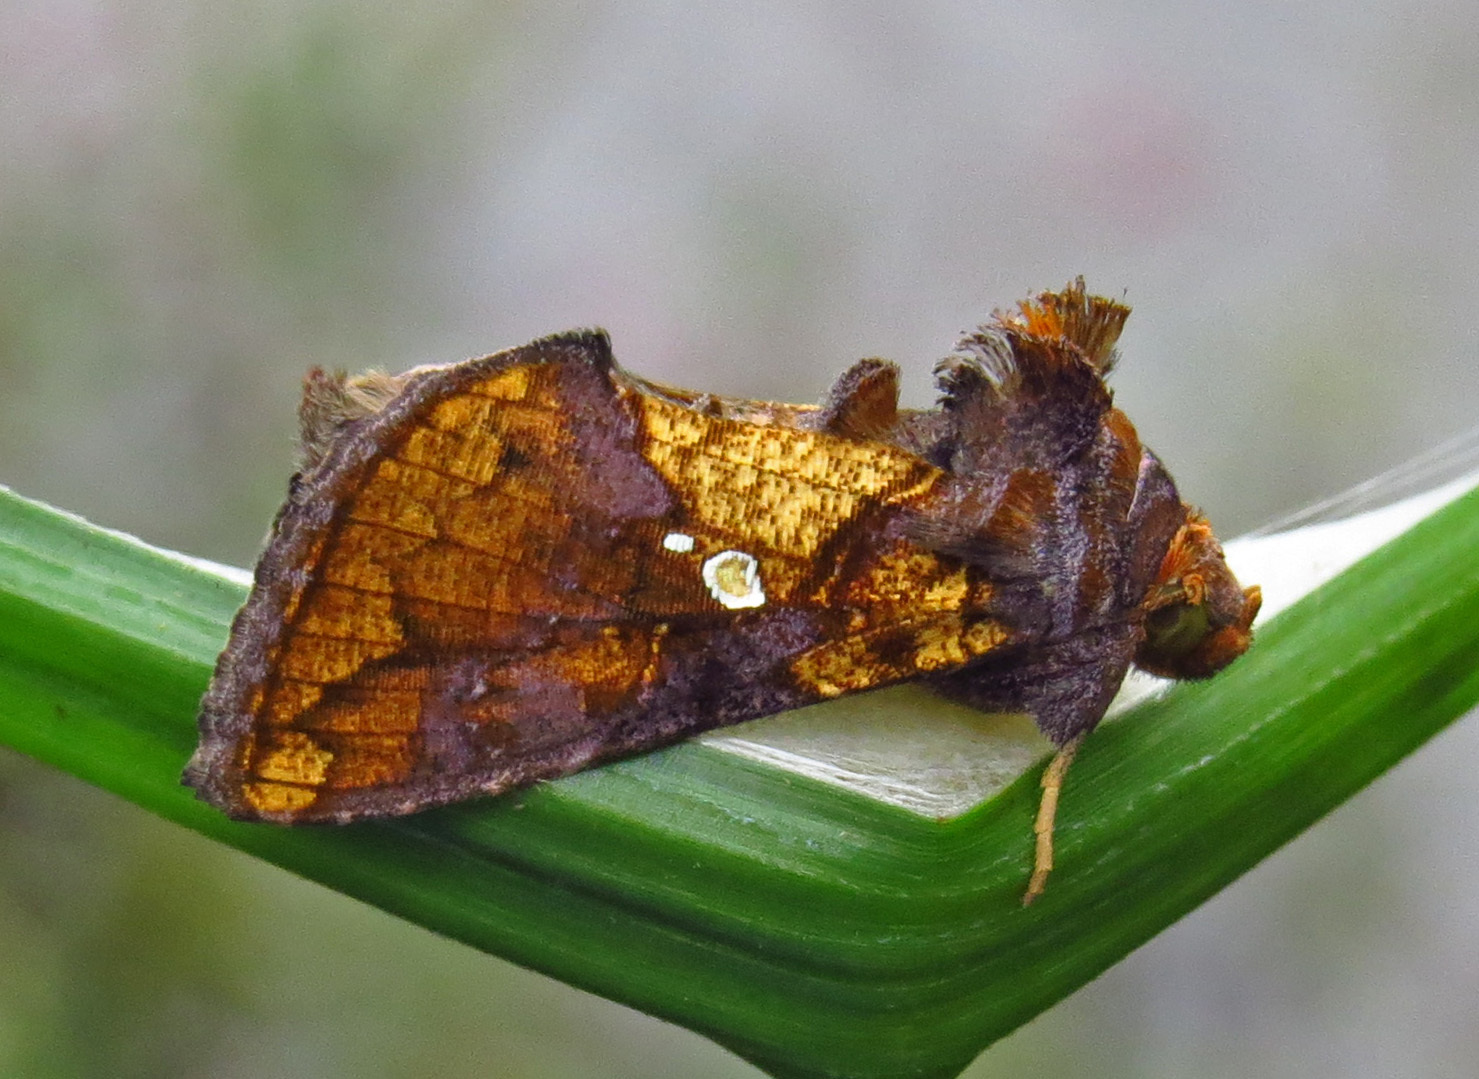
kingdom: Animalia
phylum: Arthropoda
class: Insecta
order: Lepidoptera
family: Noctuidae
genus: Argyrogramma
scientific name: Argyrogramma verruca
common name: Golden looper moth
